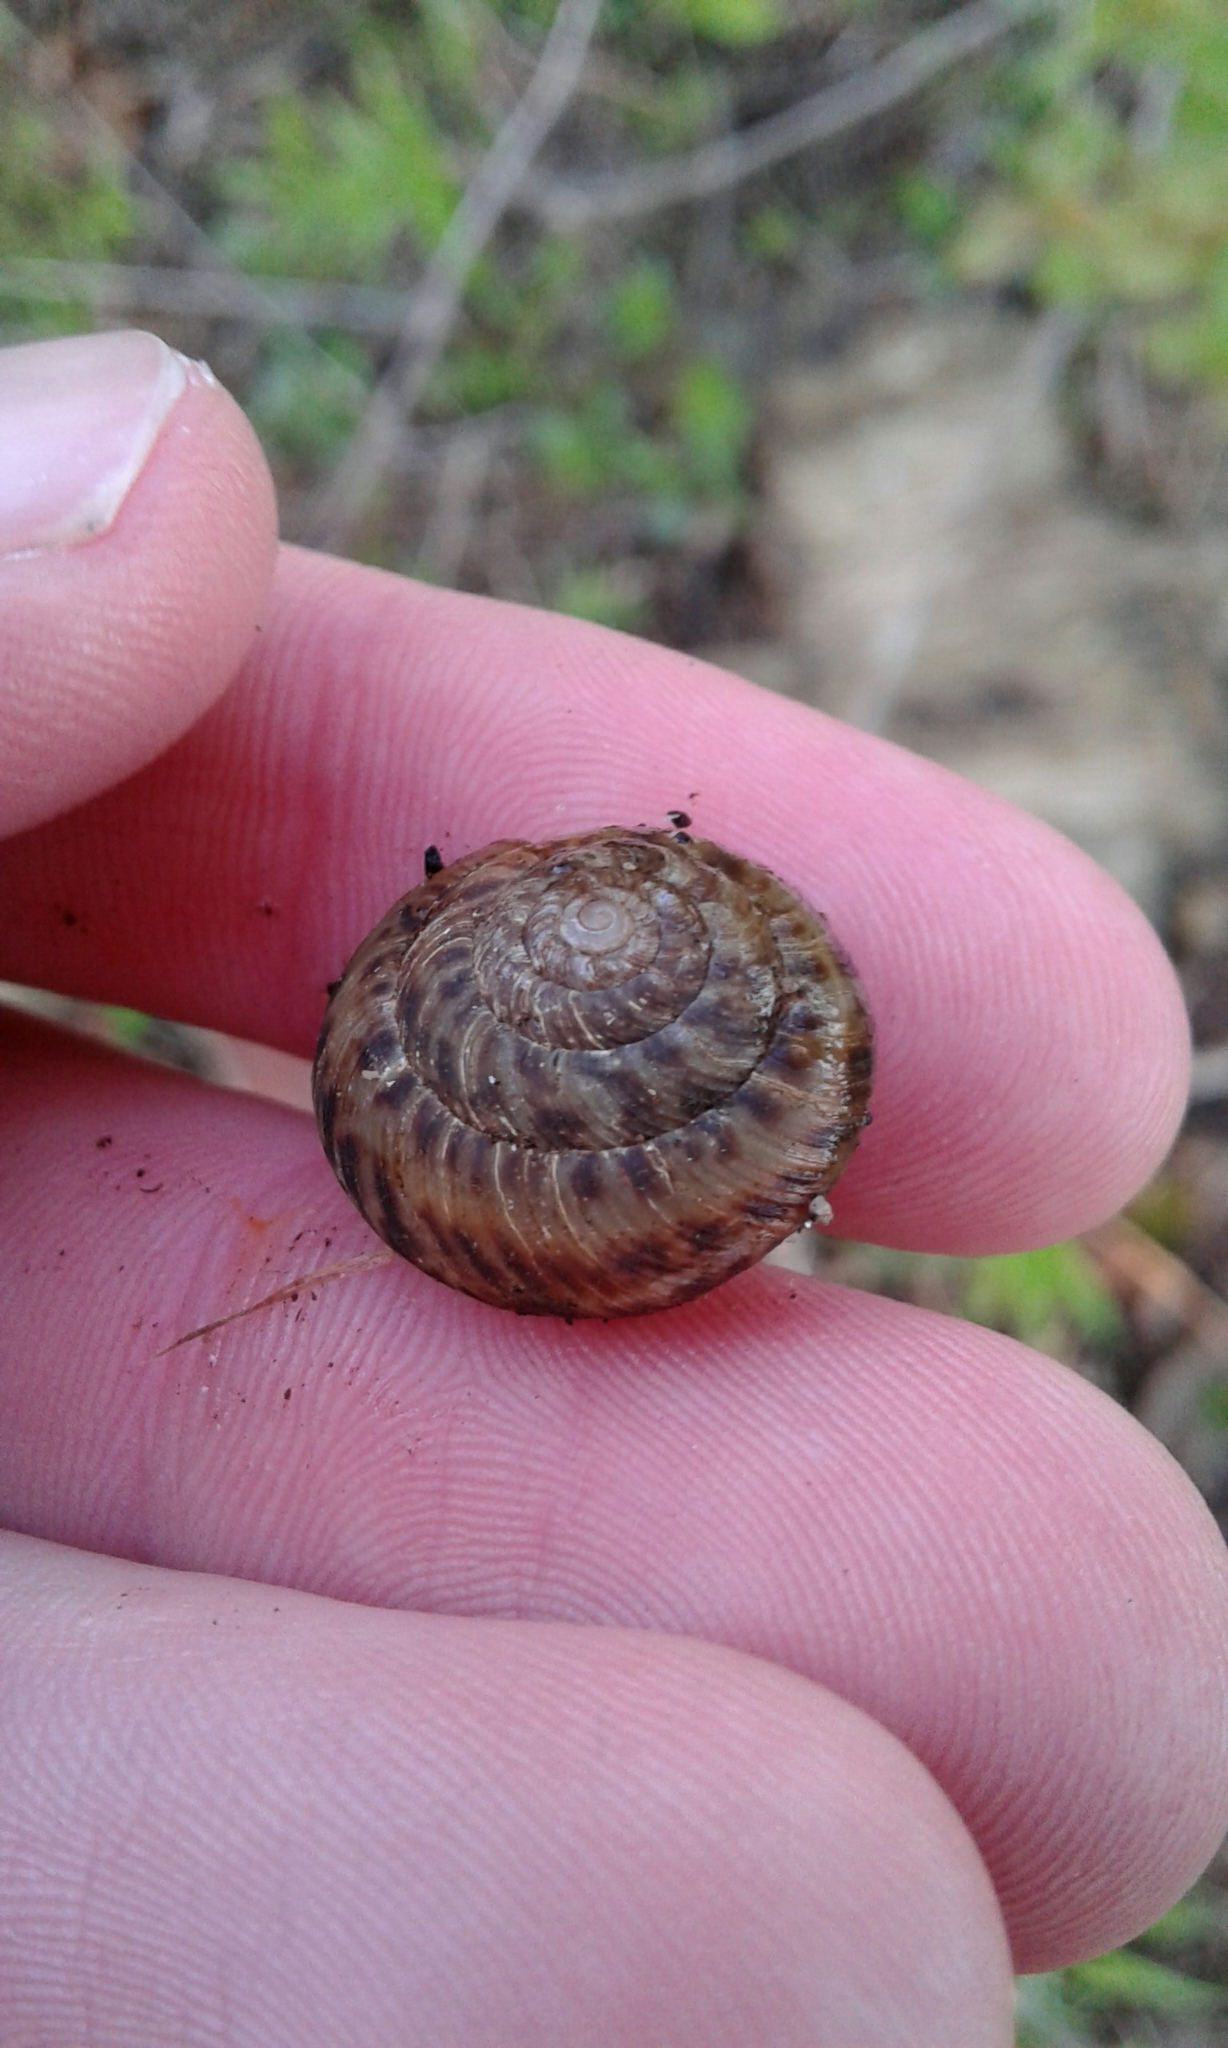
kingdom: Animalia
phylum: Mollusca
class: Gastropoda
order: Stylommatophora
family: Discidae
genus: Anguispira
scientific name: Anguispira alternata
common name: Flamed tigersnail
